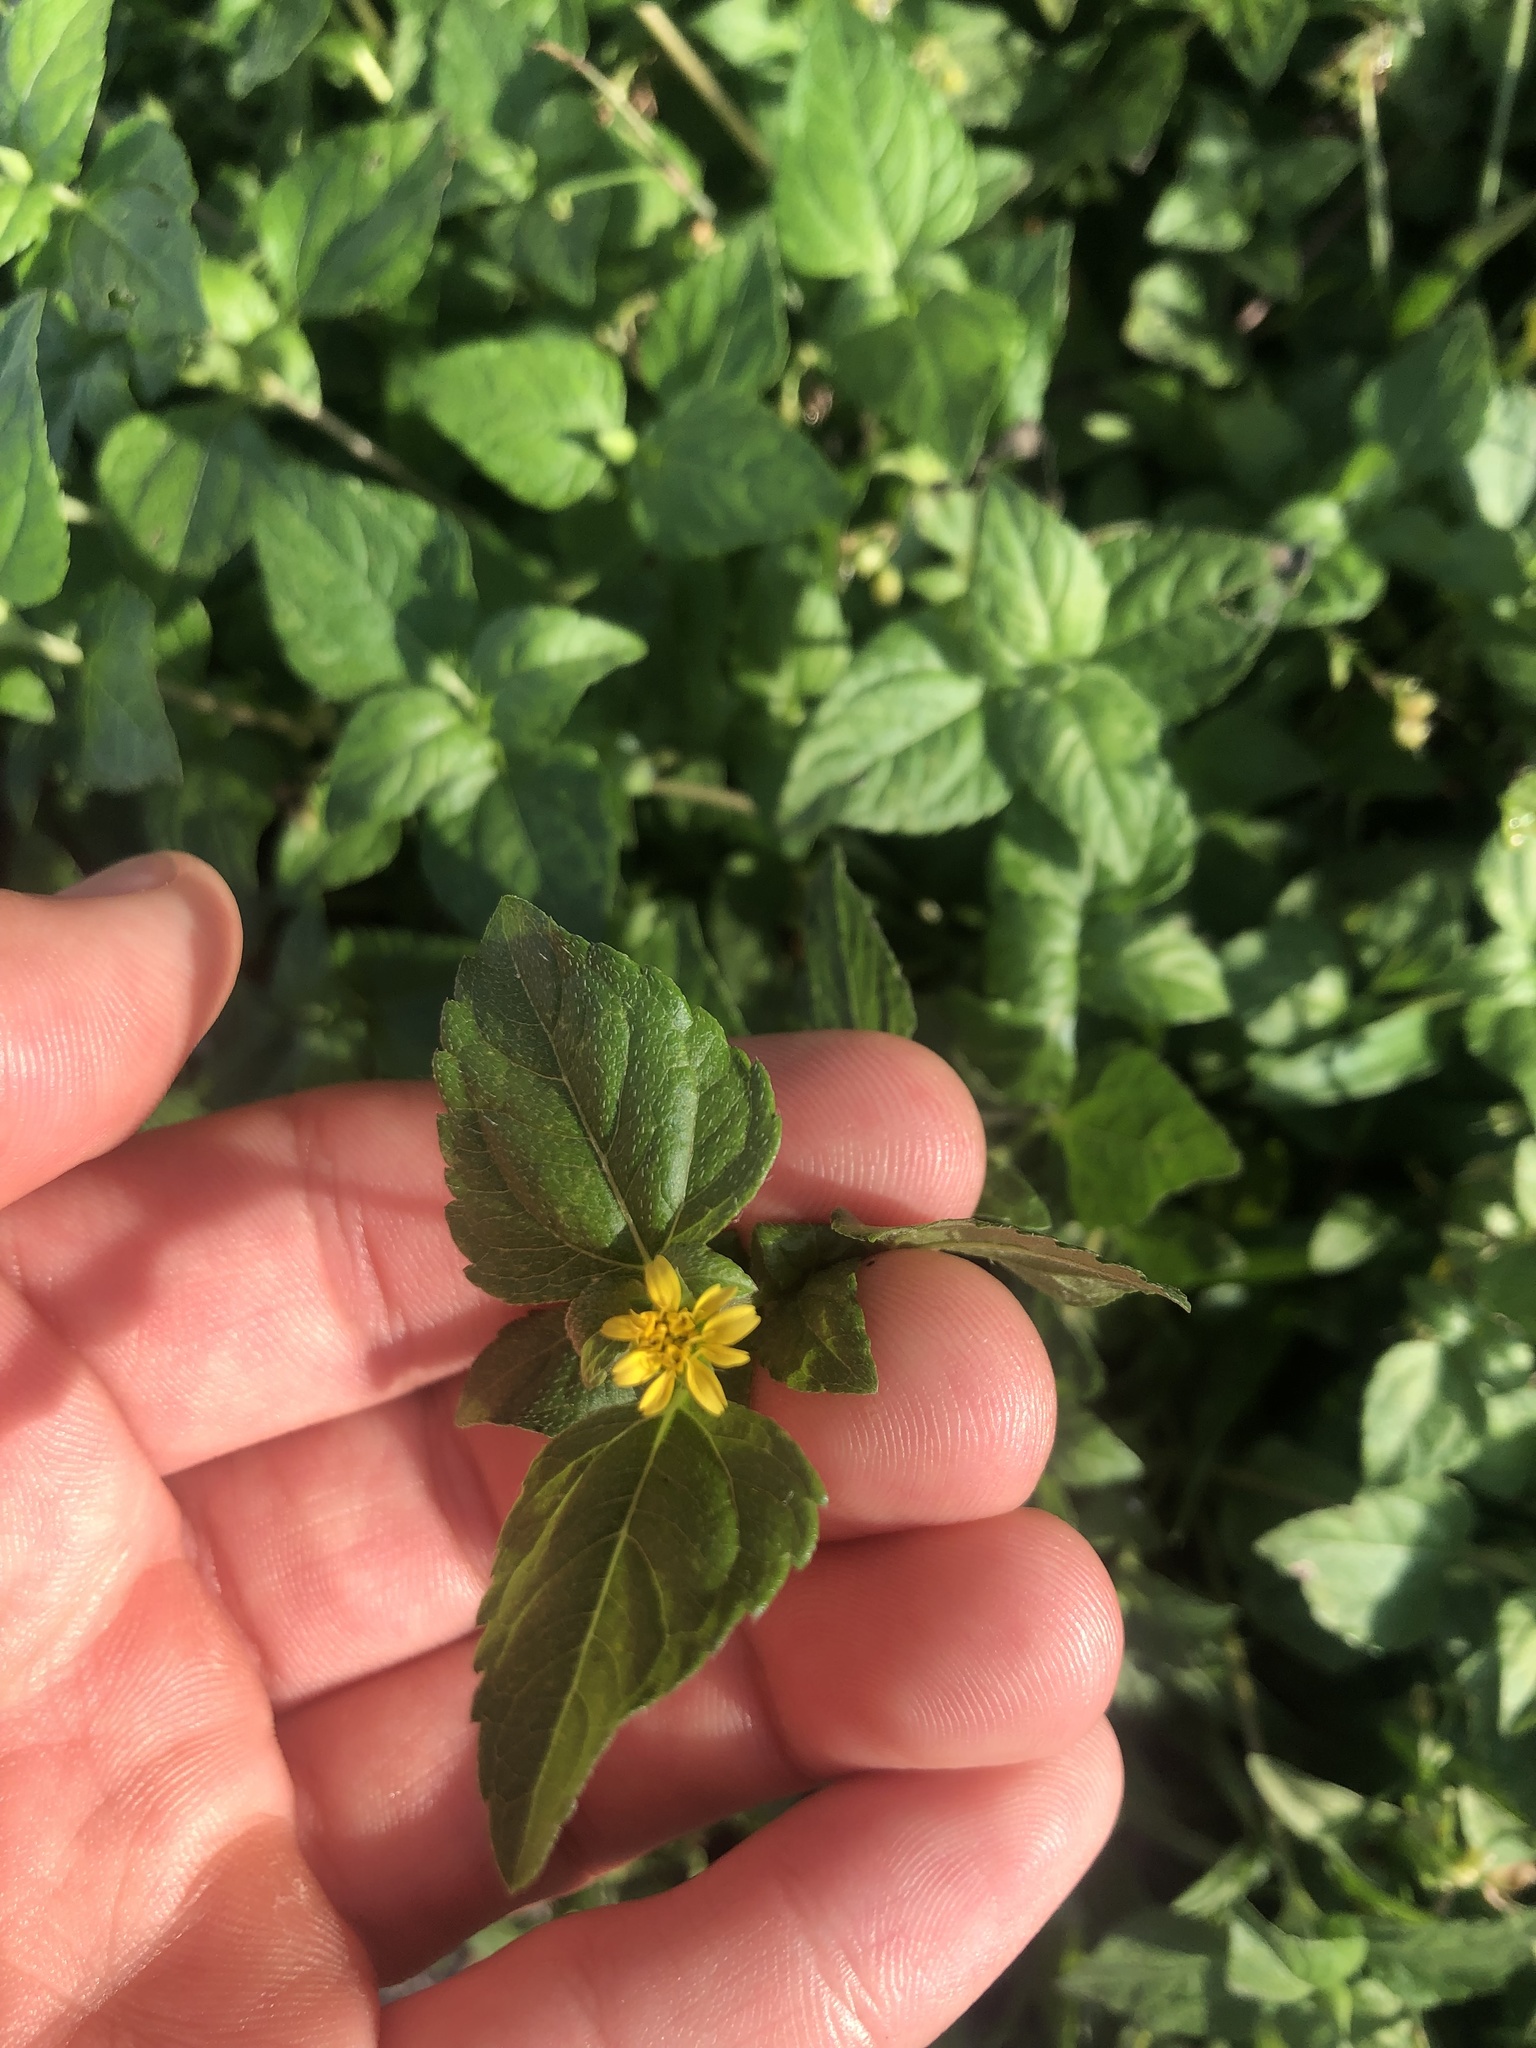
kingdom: Plantae
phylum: Tracheophyta
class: Magnoliopsida
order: Asterales
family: Asteraceae
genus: Calyptocarpus
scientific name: Calyptocarpus vialis
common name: Straggler daisy
